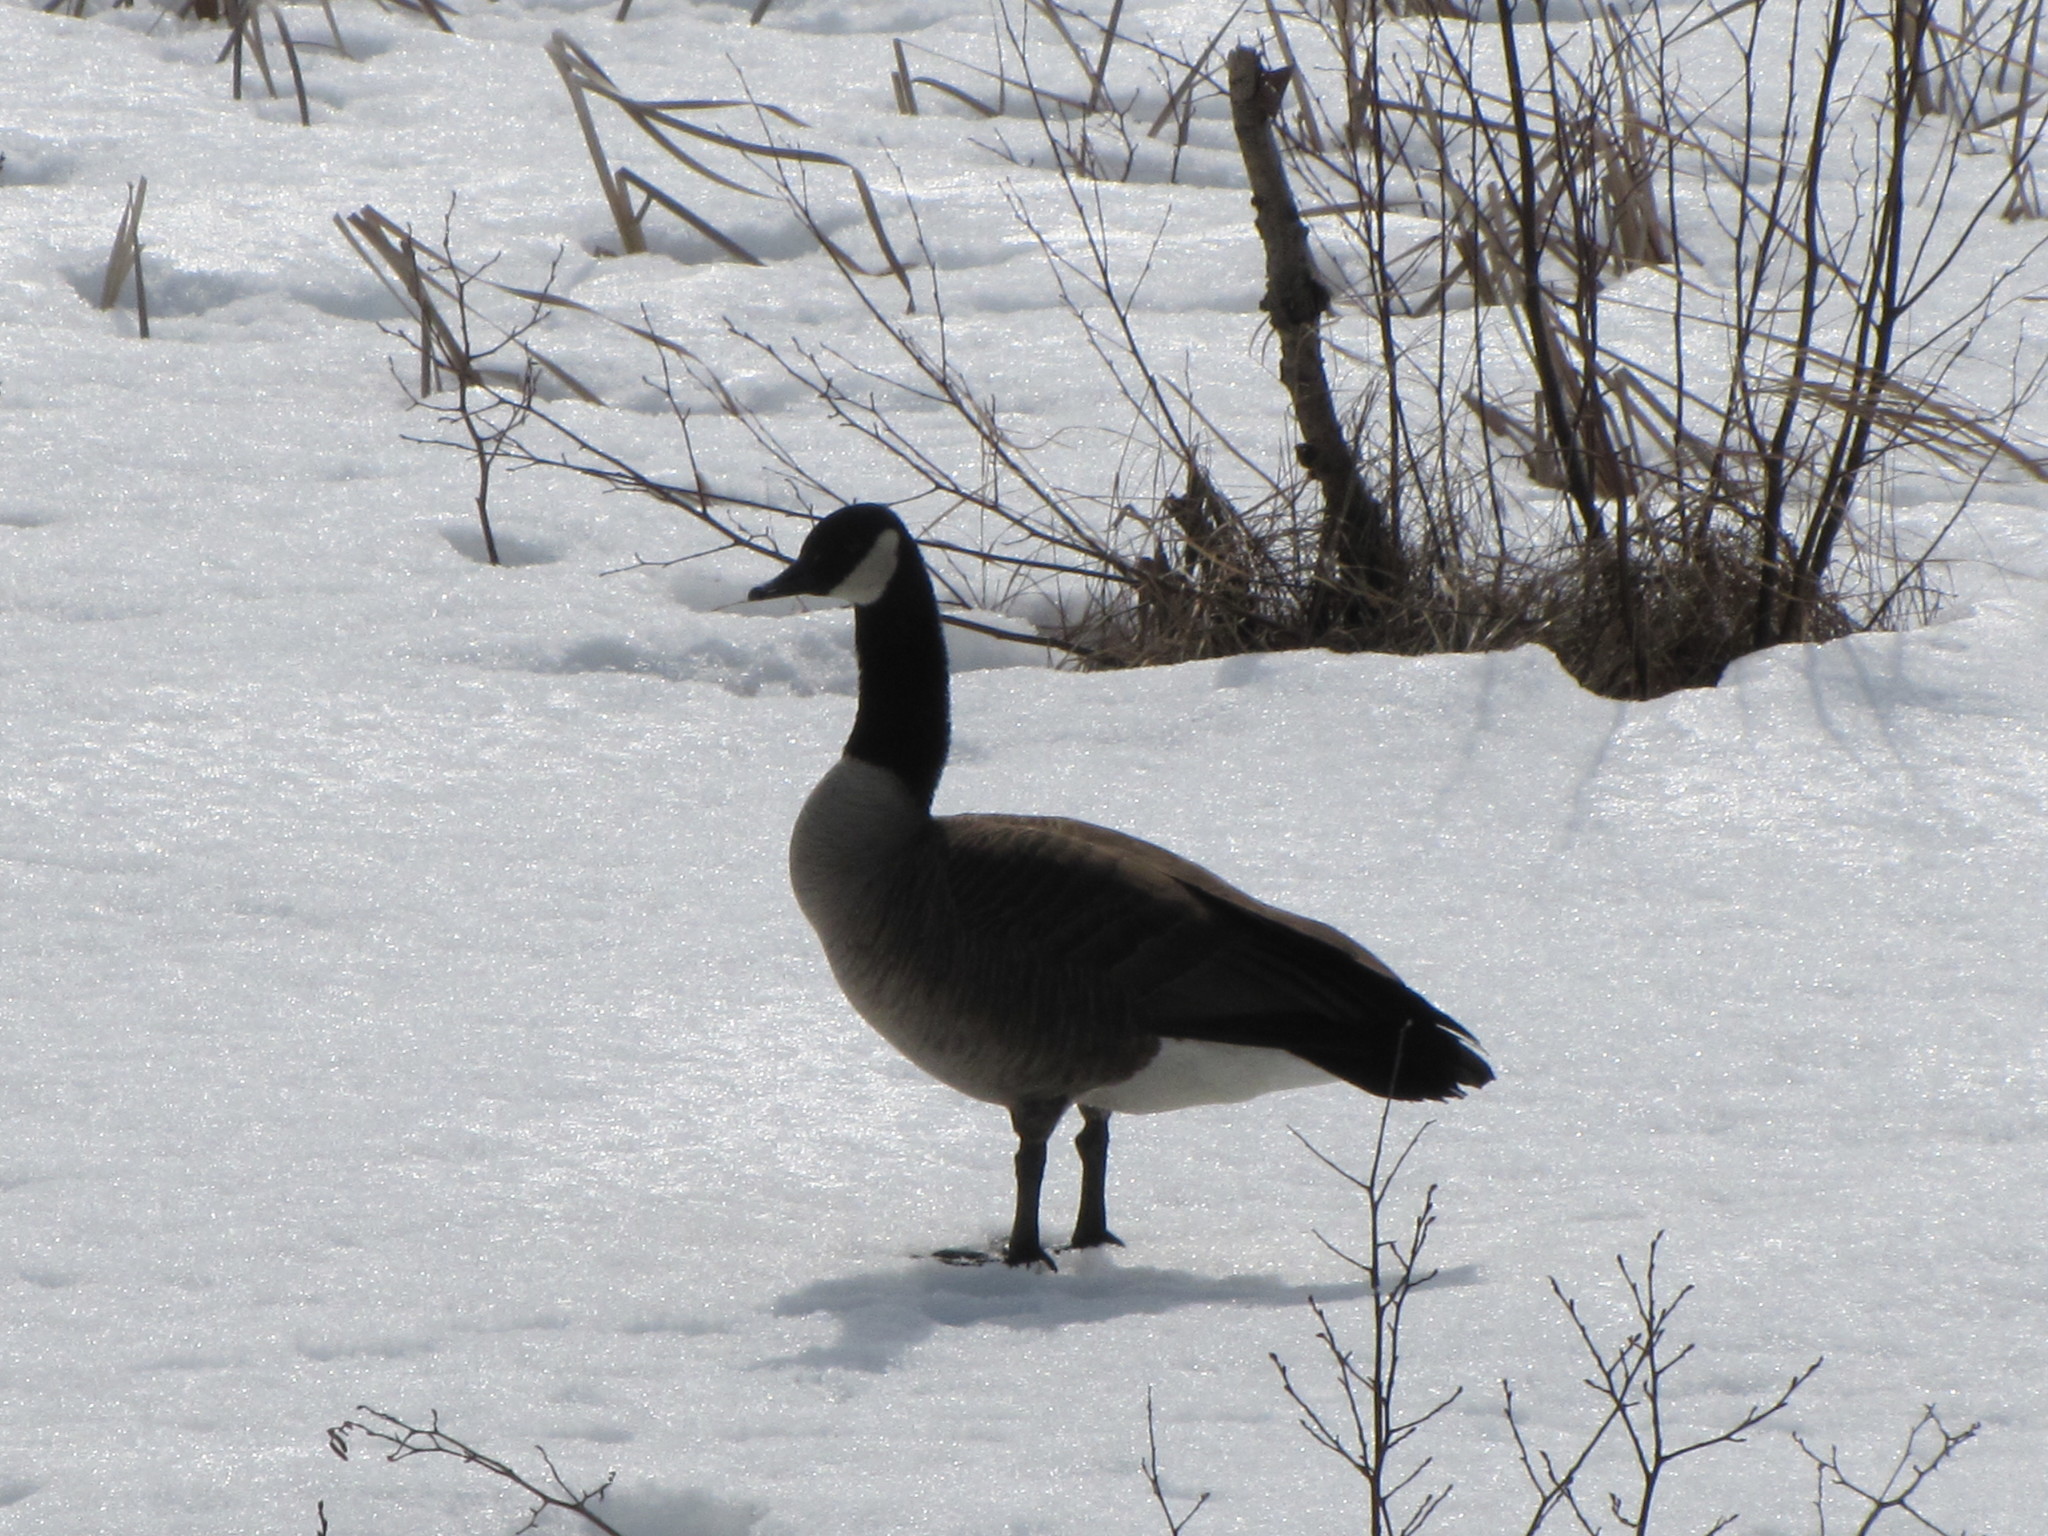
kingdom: Animalia
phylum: Chordata
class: Aves
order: Anseriformes
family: Anatidae
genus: Branta
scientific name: Branta canadensis
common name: Canada goose
